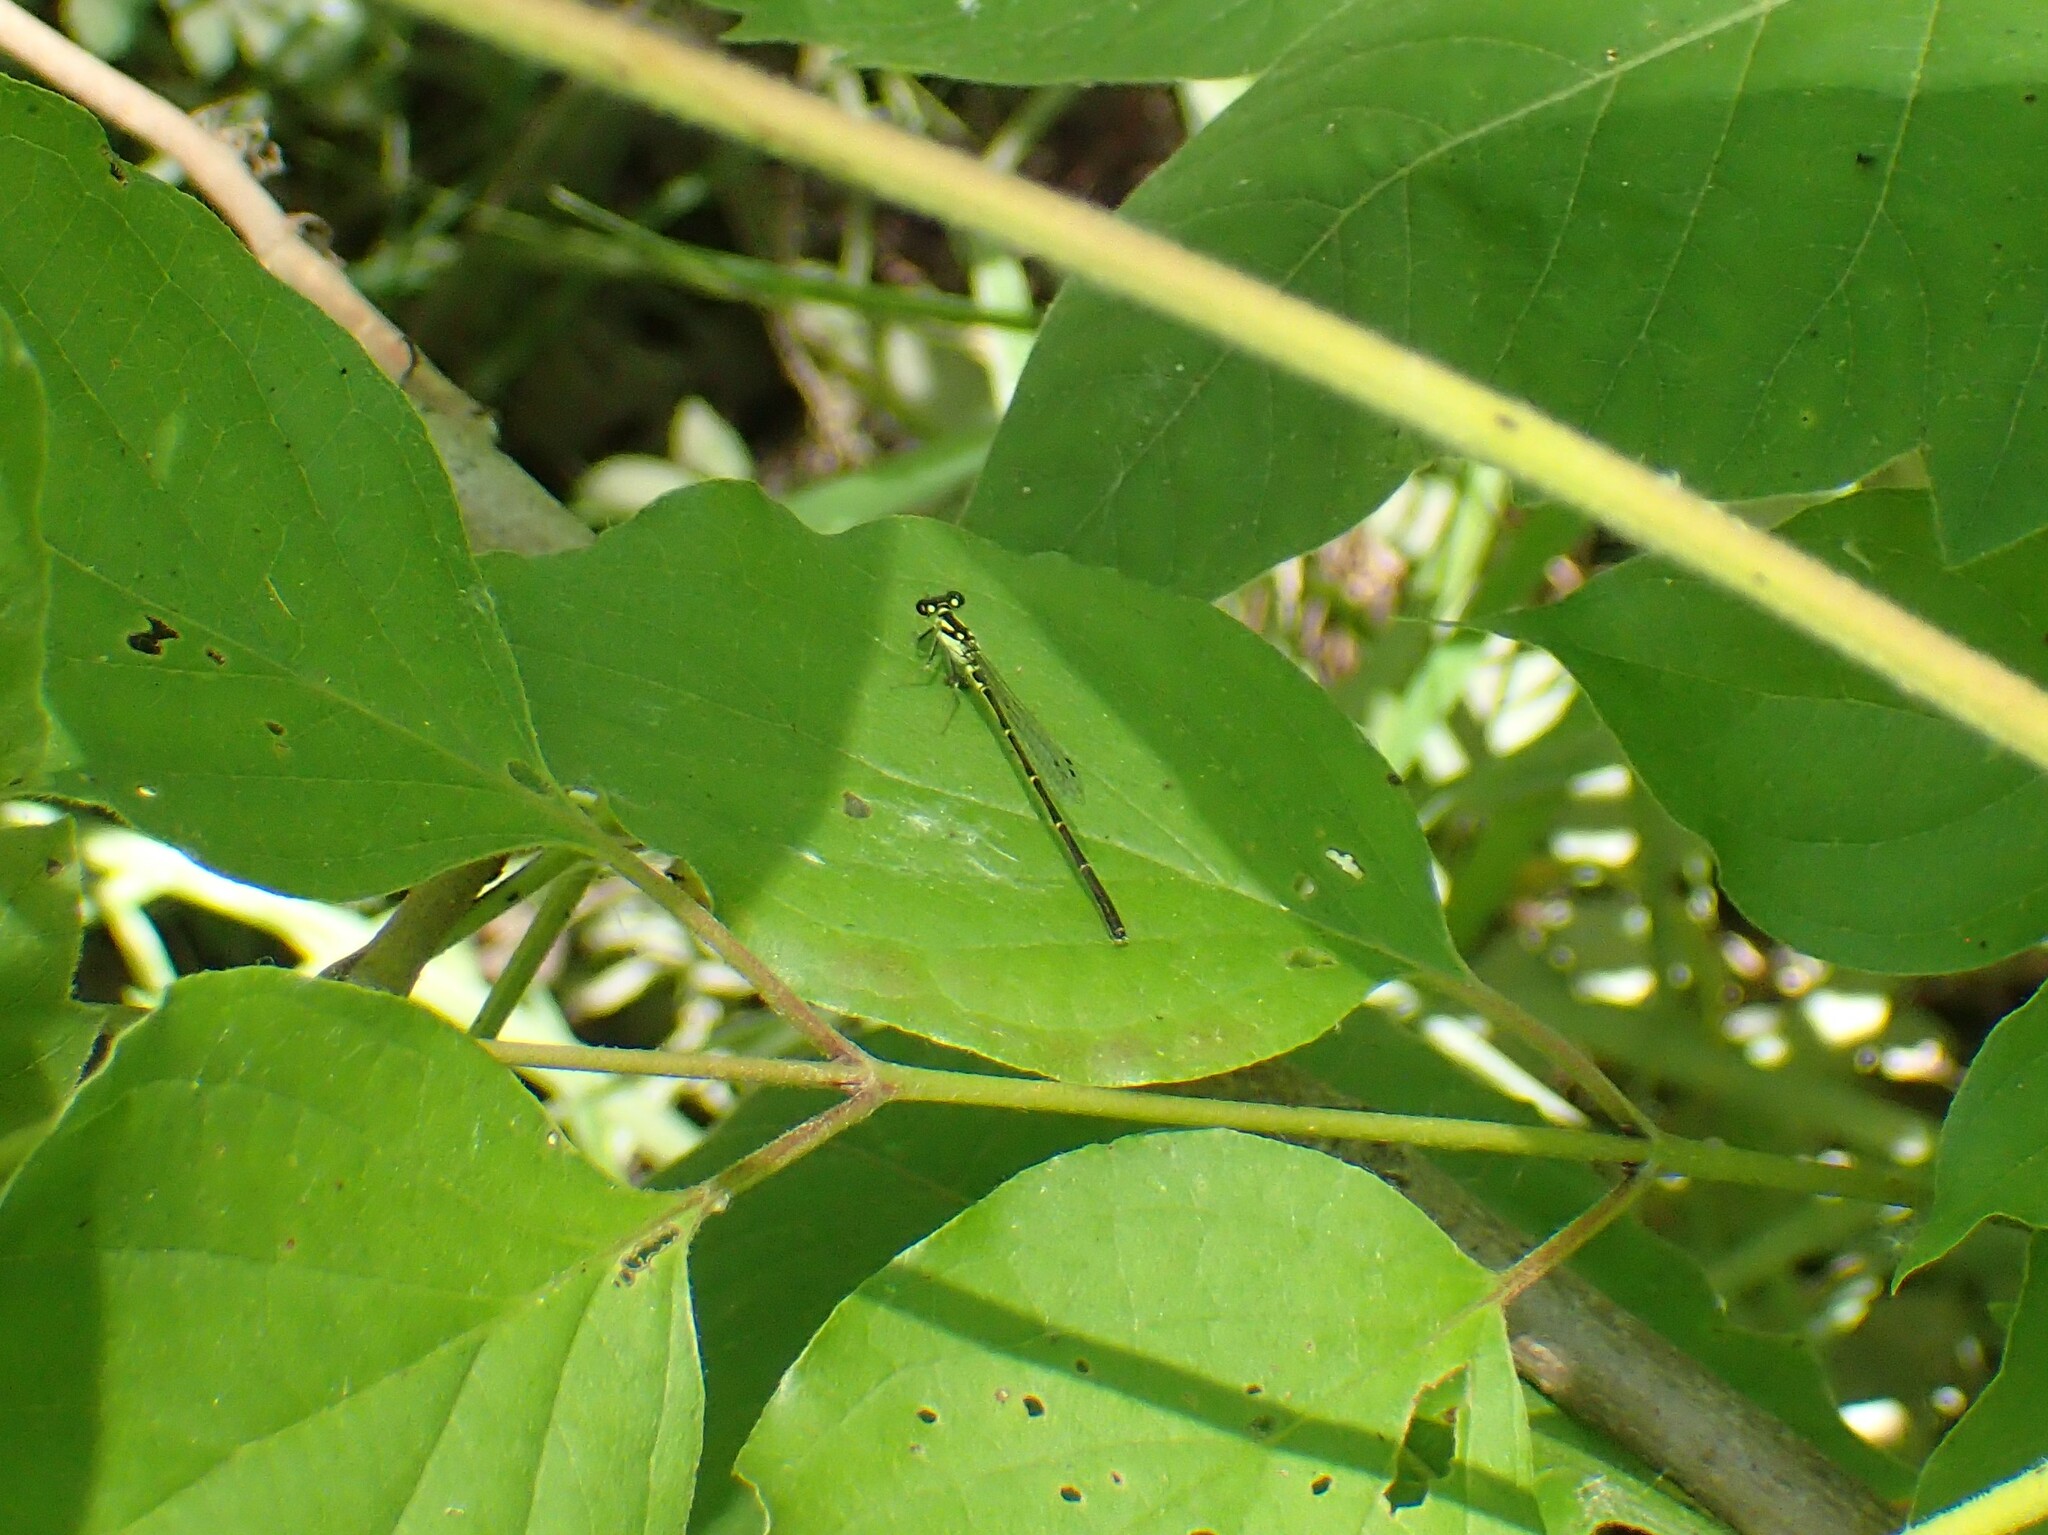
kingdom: Animalia
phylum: Arthropoda
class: Insecta
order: Odonata
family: Coenagrionidae
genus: Ischnura
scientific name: Ischnura posita
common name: Fragile forktail
